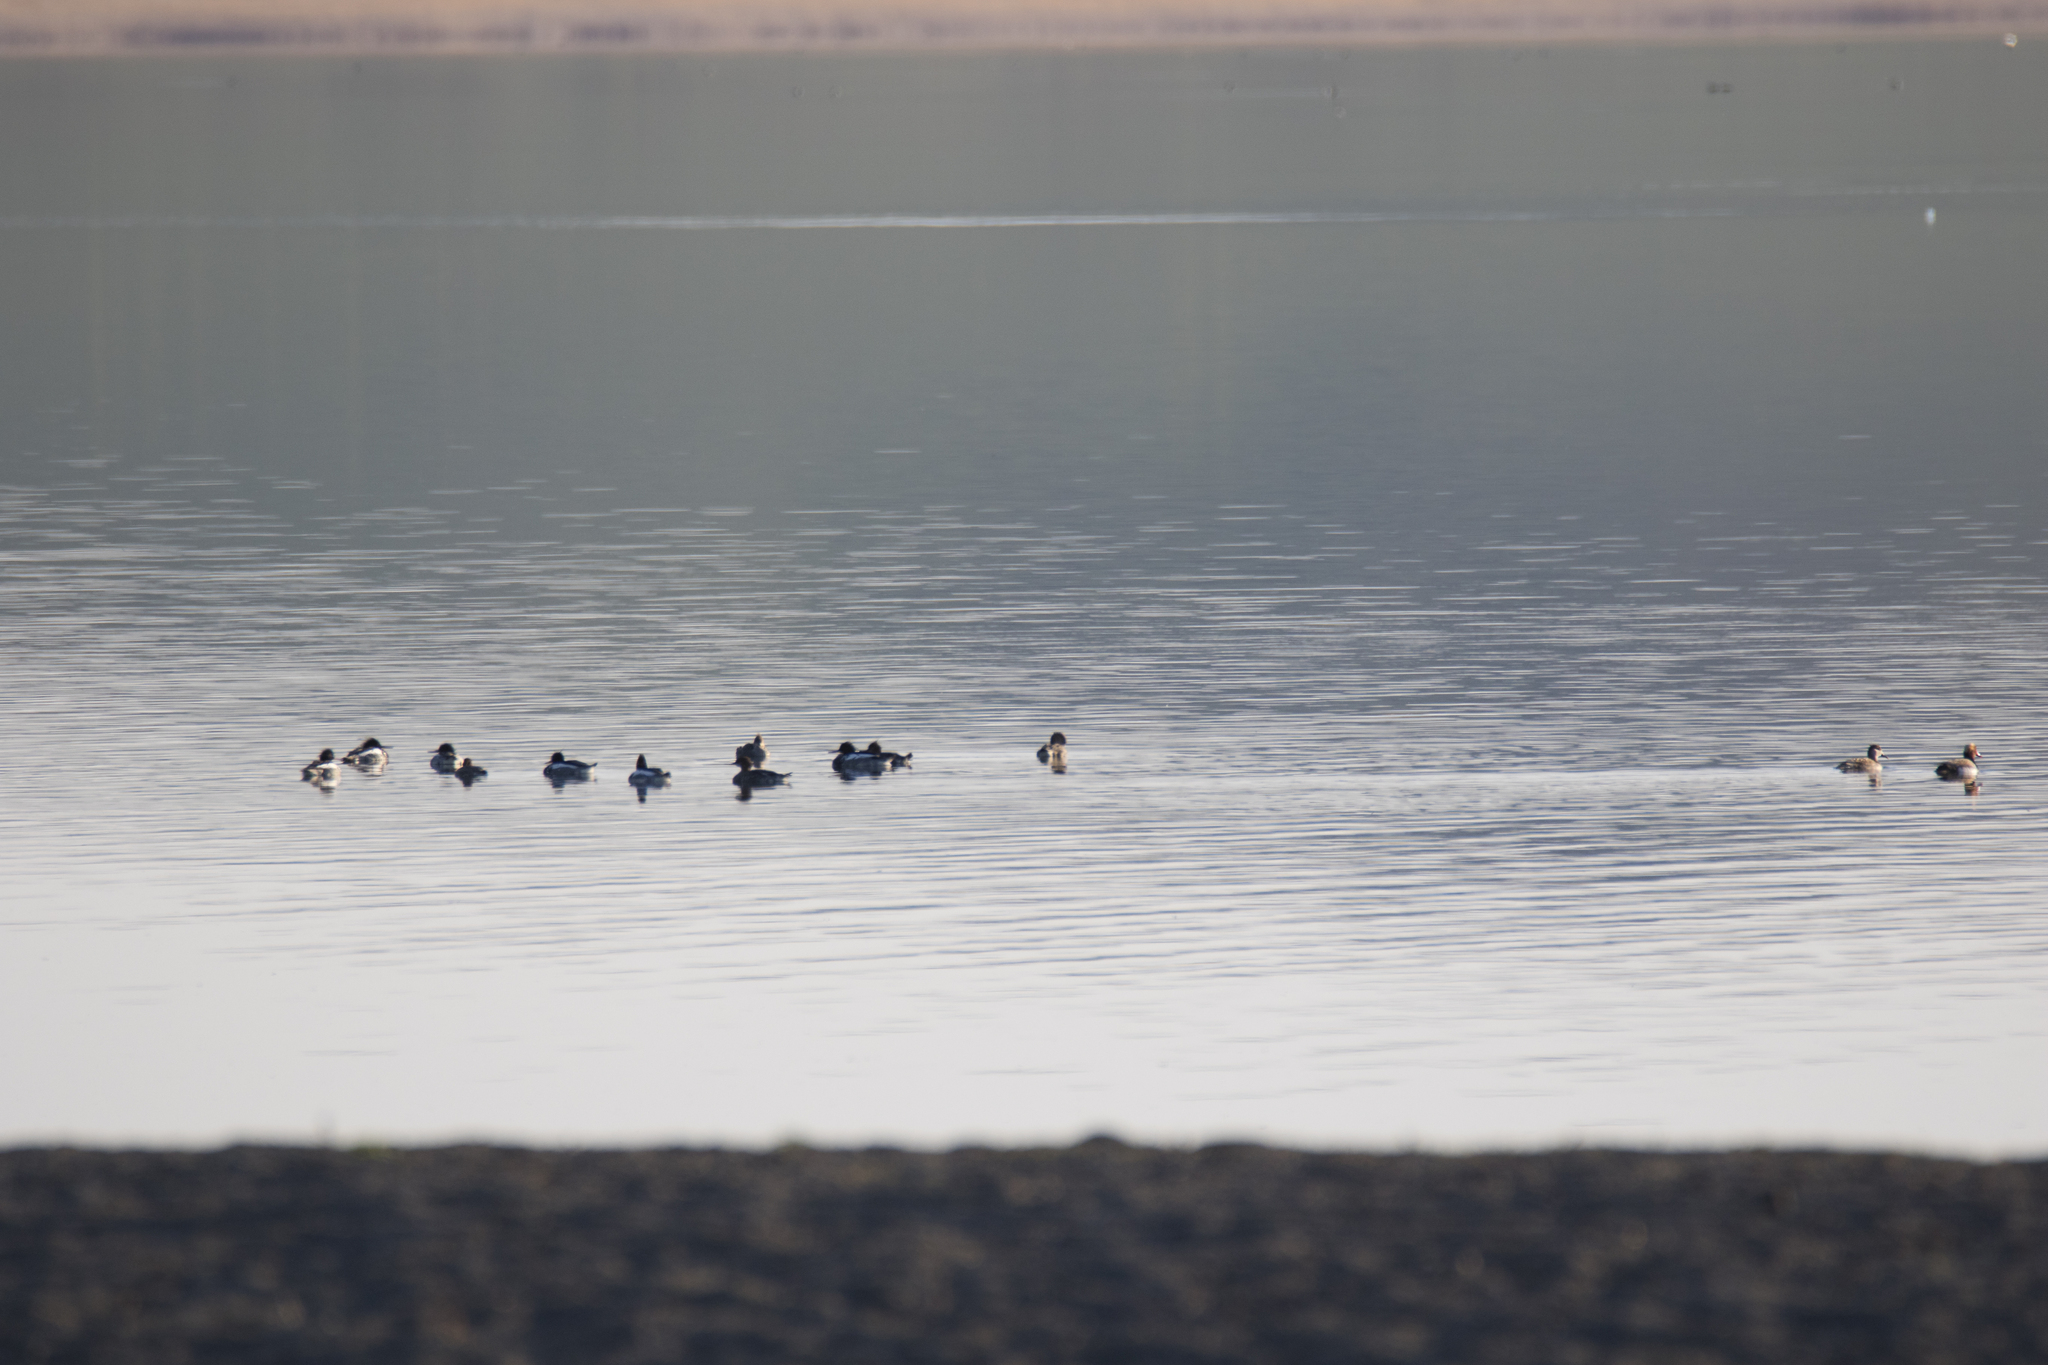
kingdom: Animalia
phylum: Chordata
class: Aves
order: Anseriformes
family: Anatidae
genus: Netta
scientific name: Netta rufina
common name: Red-crested pochard
